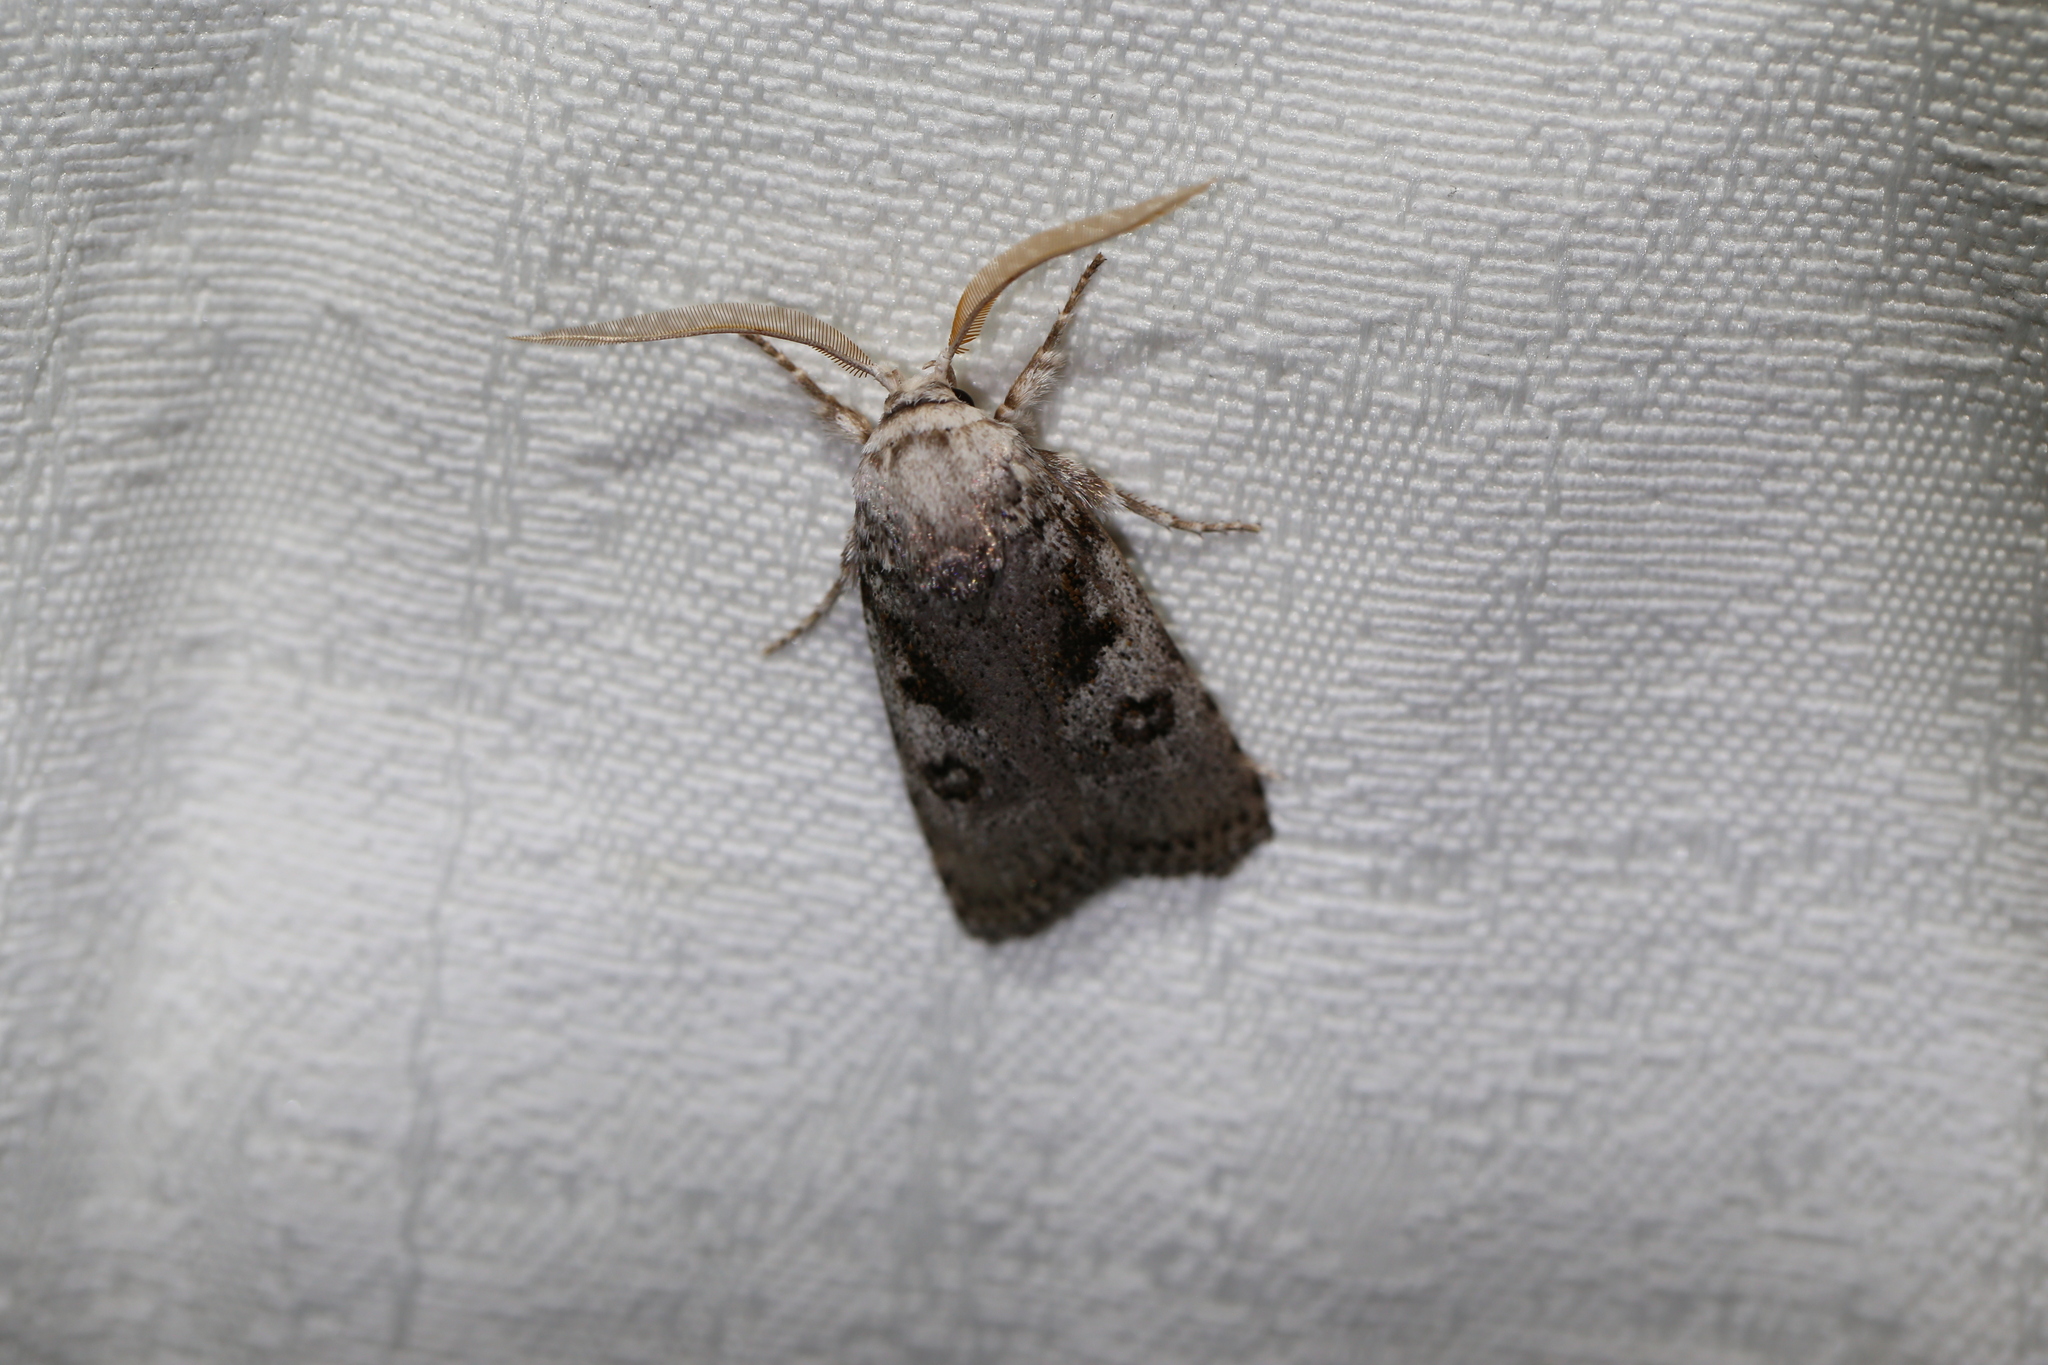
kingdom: Animalia
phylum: Arthropoda
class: Insecta
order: Lepidoptera
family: Xyloryctidae
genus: Cryptophasa
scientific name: Cryptophasa irrorata
